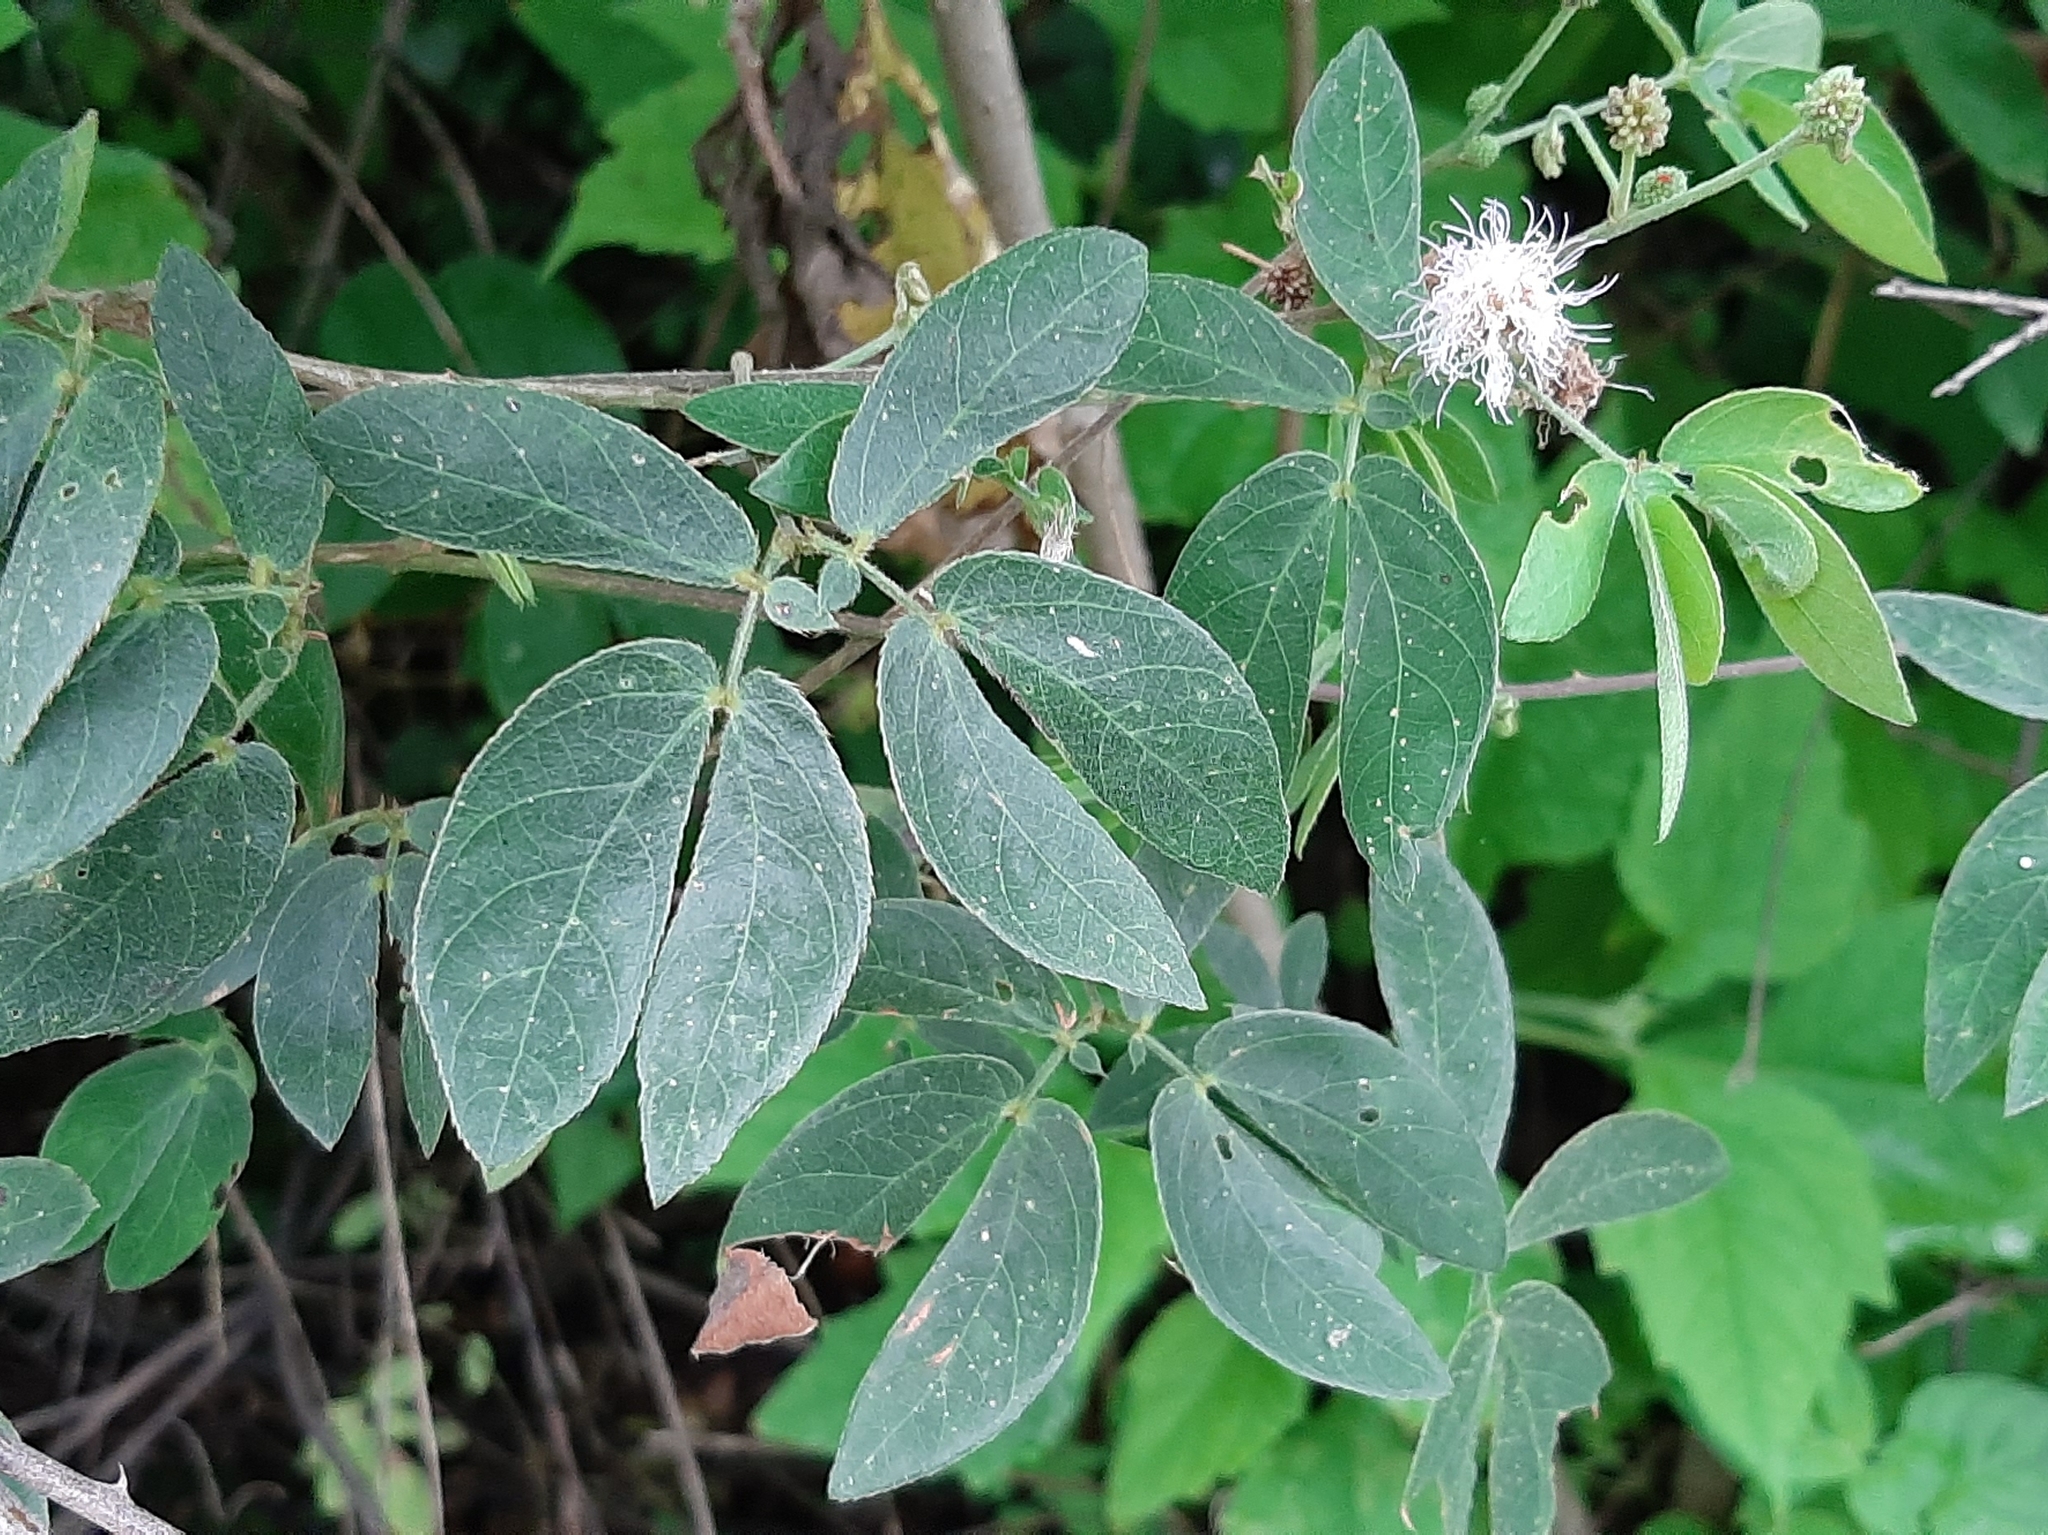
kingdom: Plantae
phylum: Tracheophyta
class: Magnoliopsida
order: Fabales
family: Fabaceae
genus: Mimosa
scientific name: Mimosa albida
